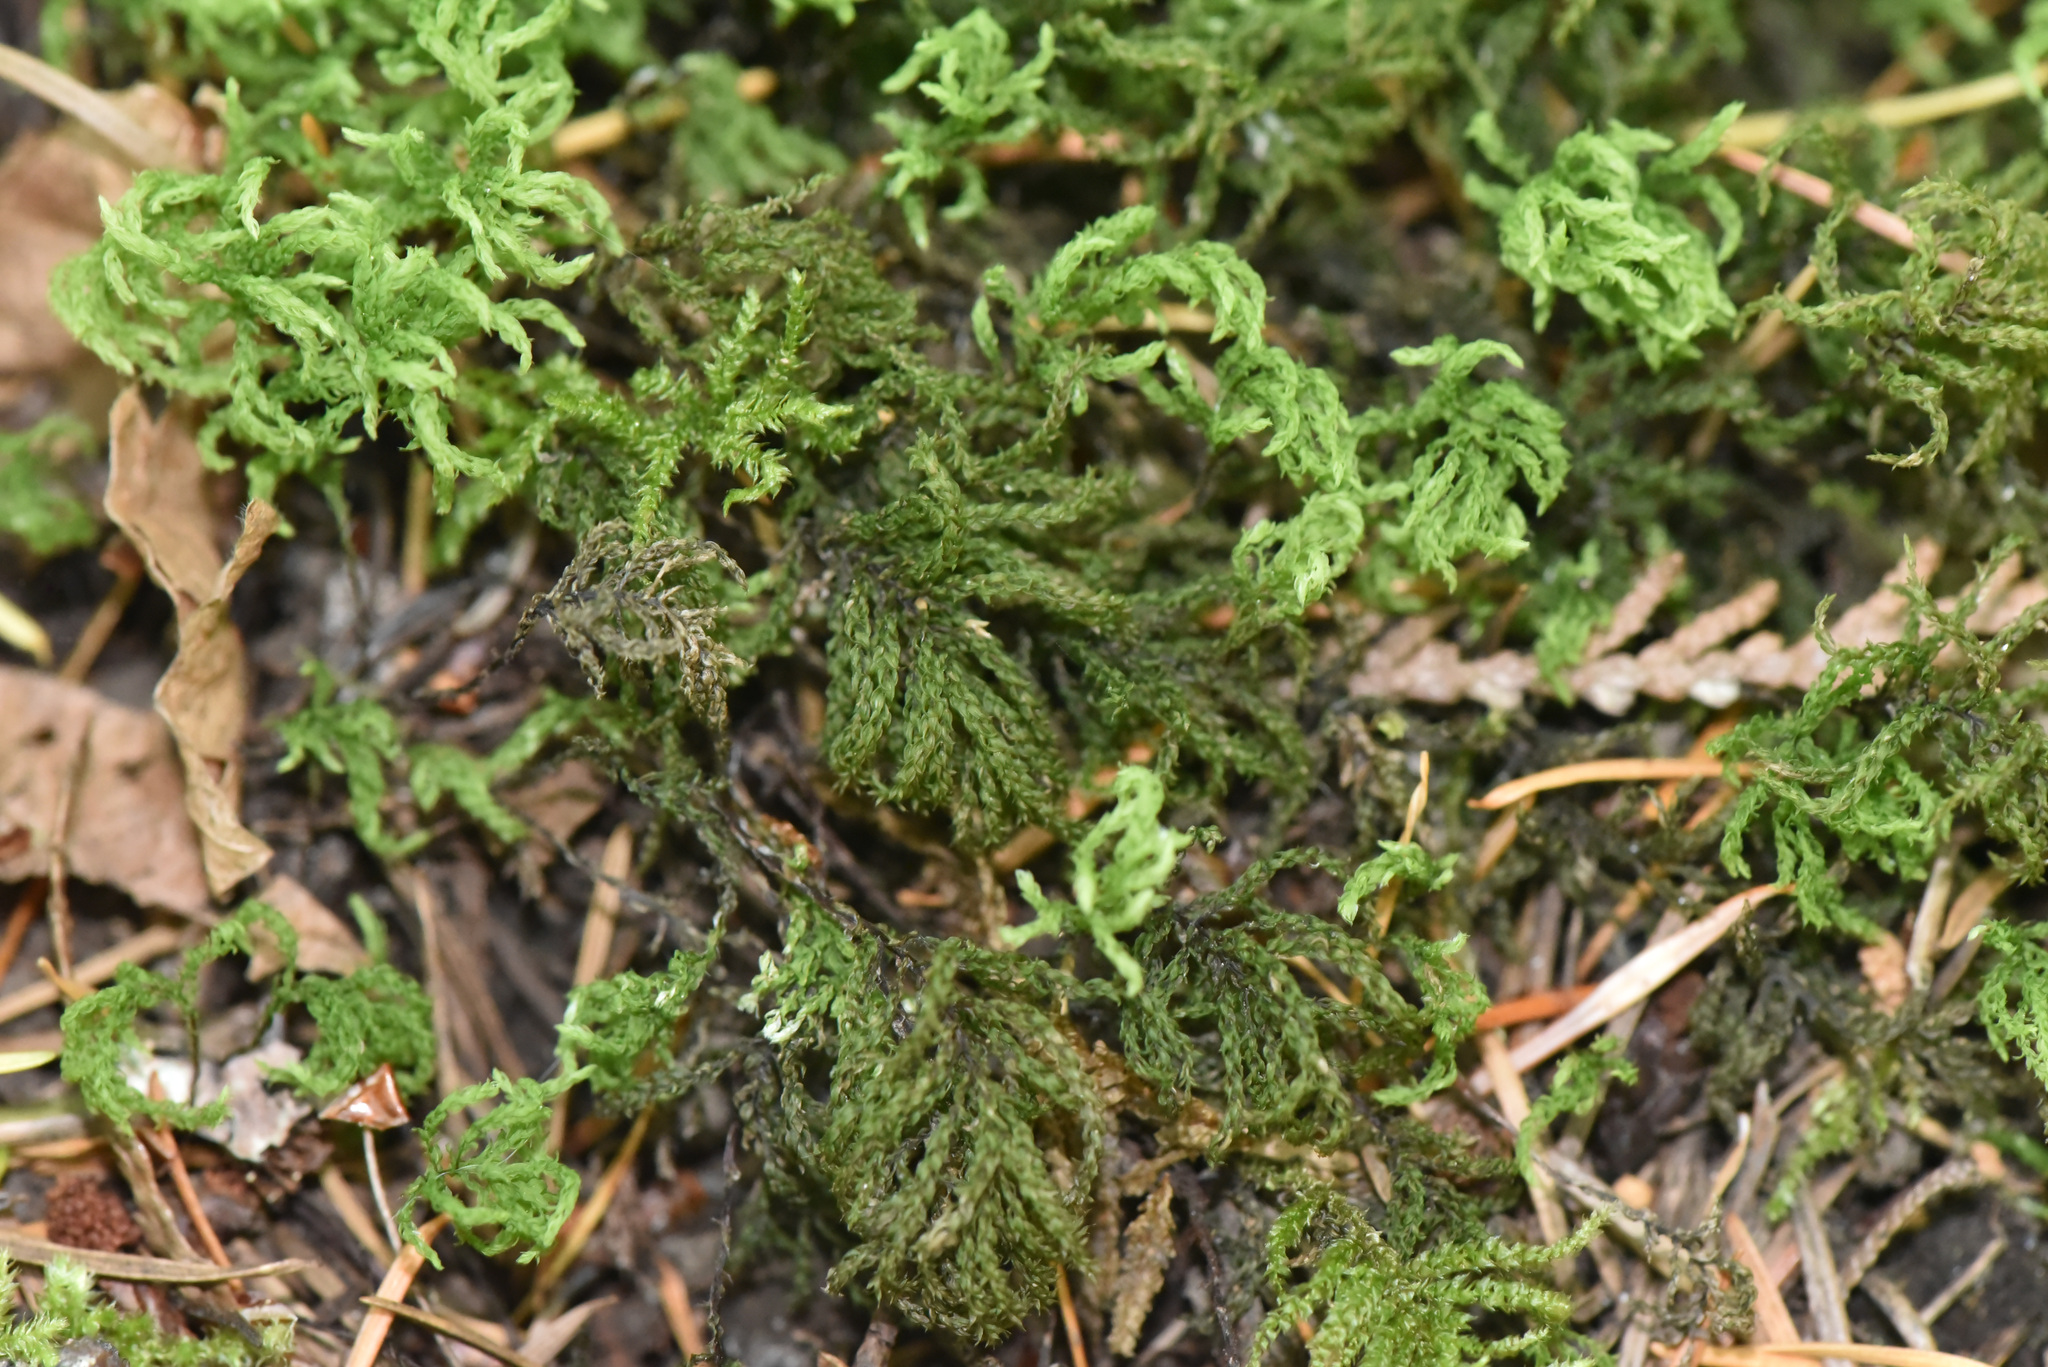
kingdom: Plantae
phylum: Bryophyta
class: Bryopsida
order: Bryales
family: Mniaceae
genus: Leucolepis
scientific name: Leucolepis acanthoneura
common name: Leucolepis umbrella moss
